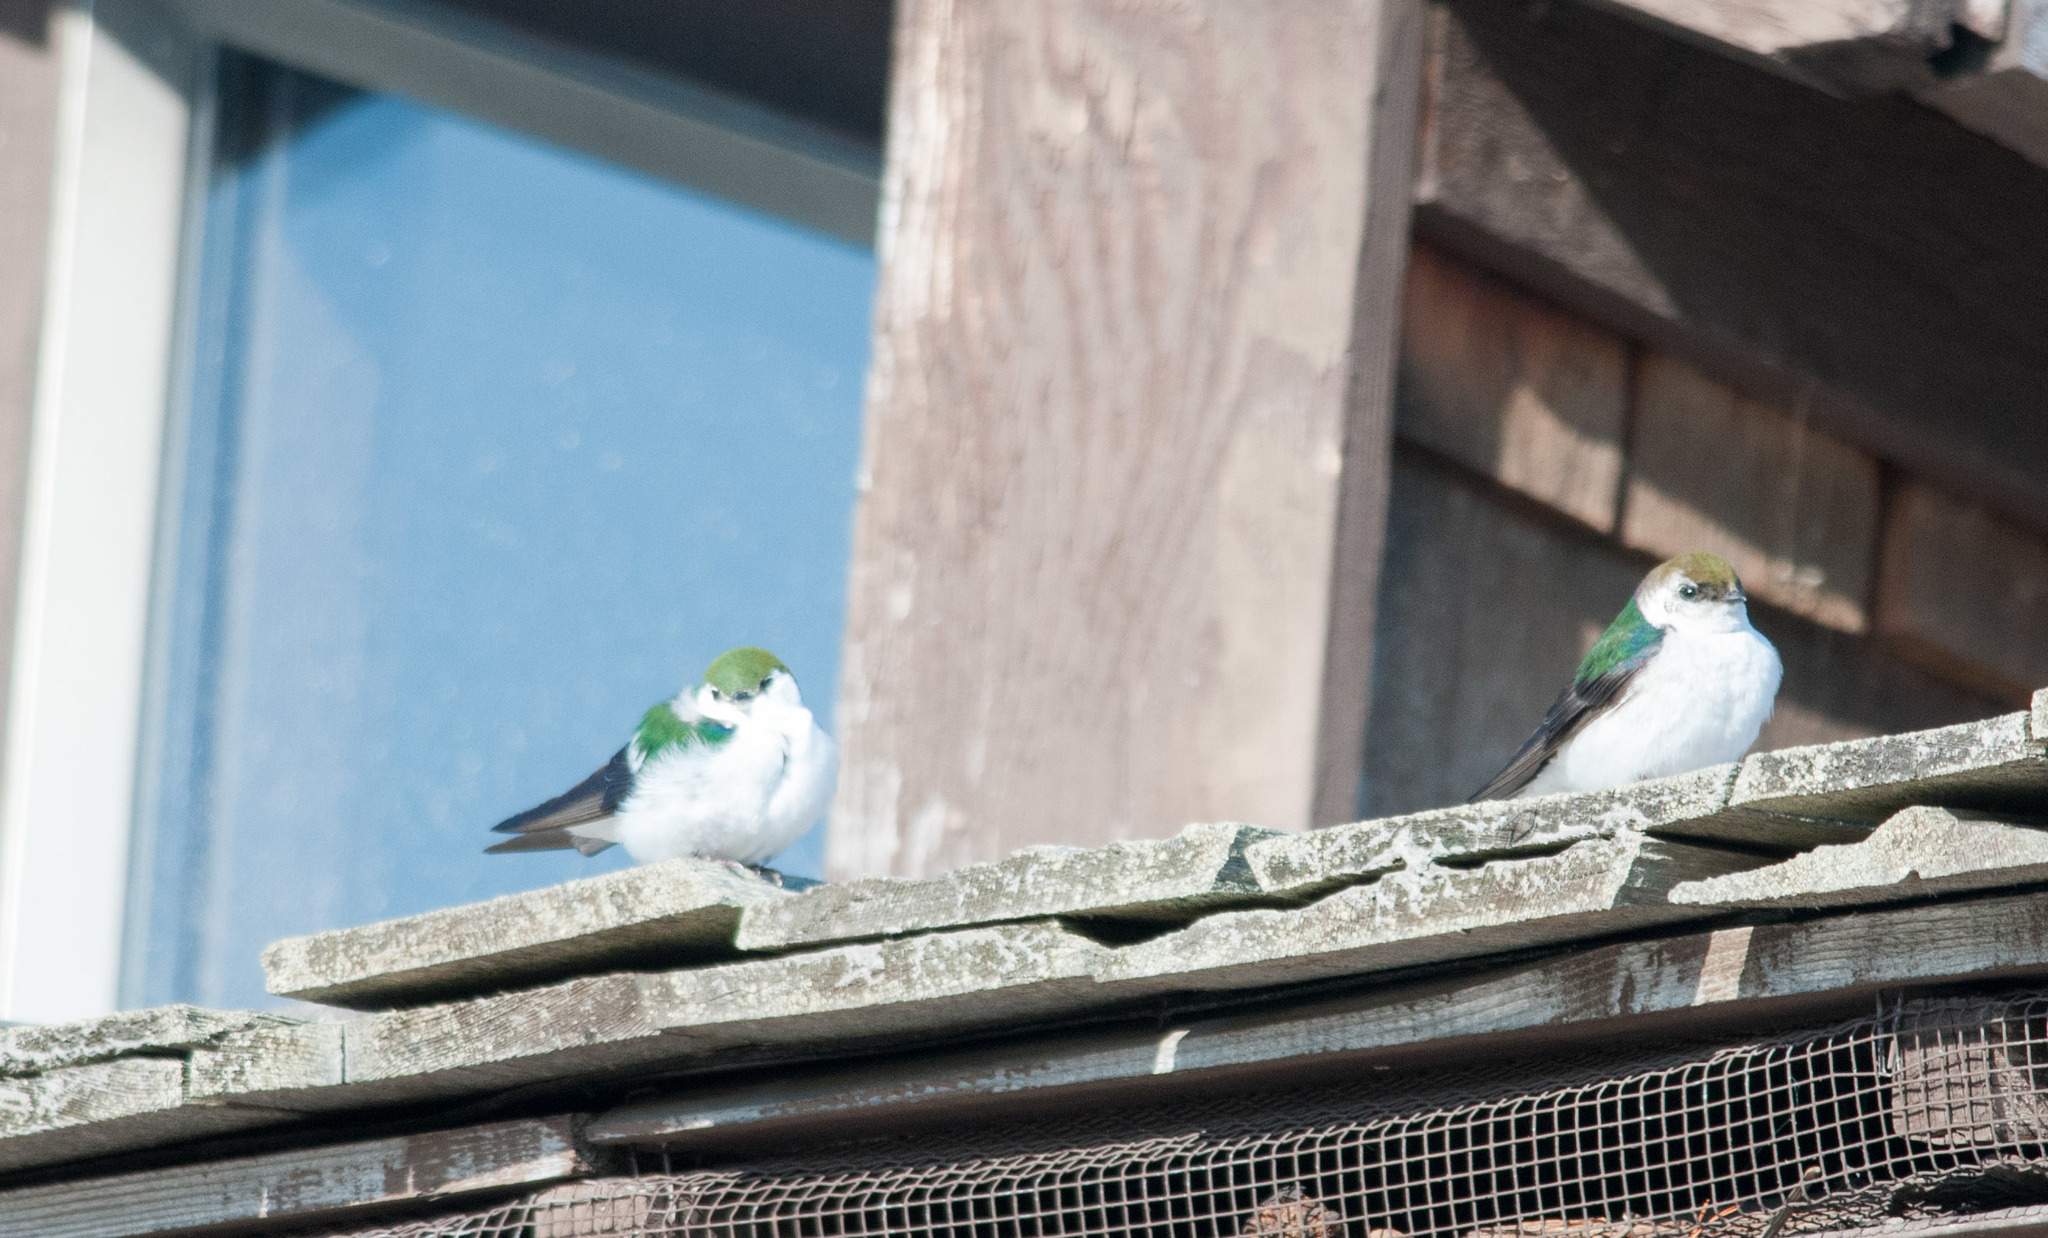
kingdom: Animalia
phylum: Chordata
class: Aves
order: Passeriformes
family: Hirundinidae
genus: Tachycineta
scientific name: Tachycineta thalassina
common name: Violet-green swallow
